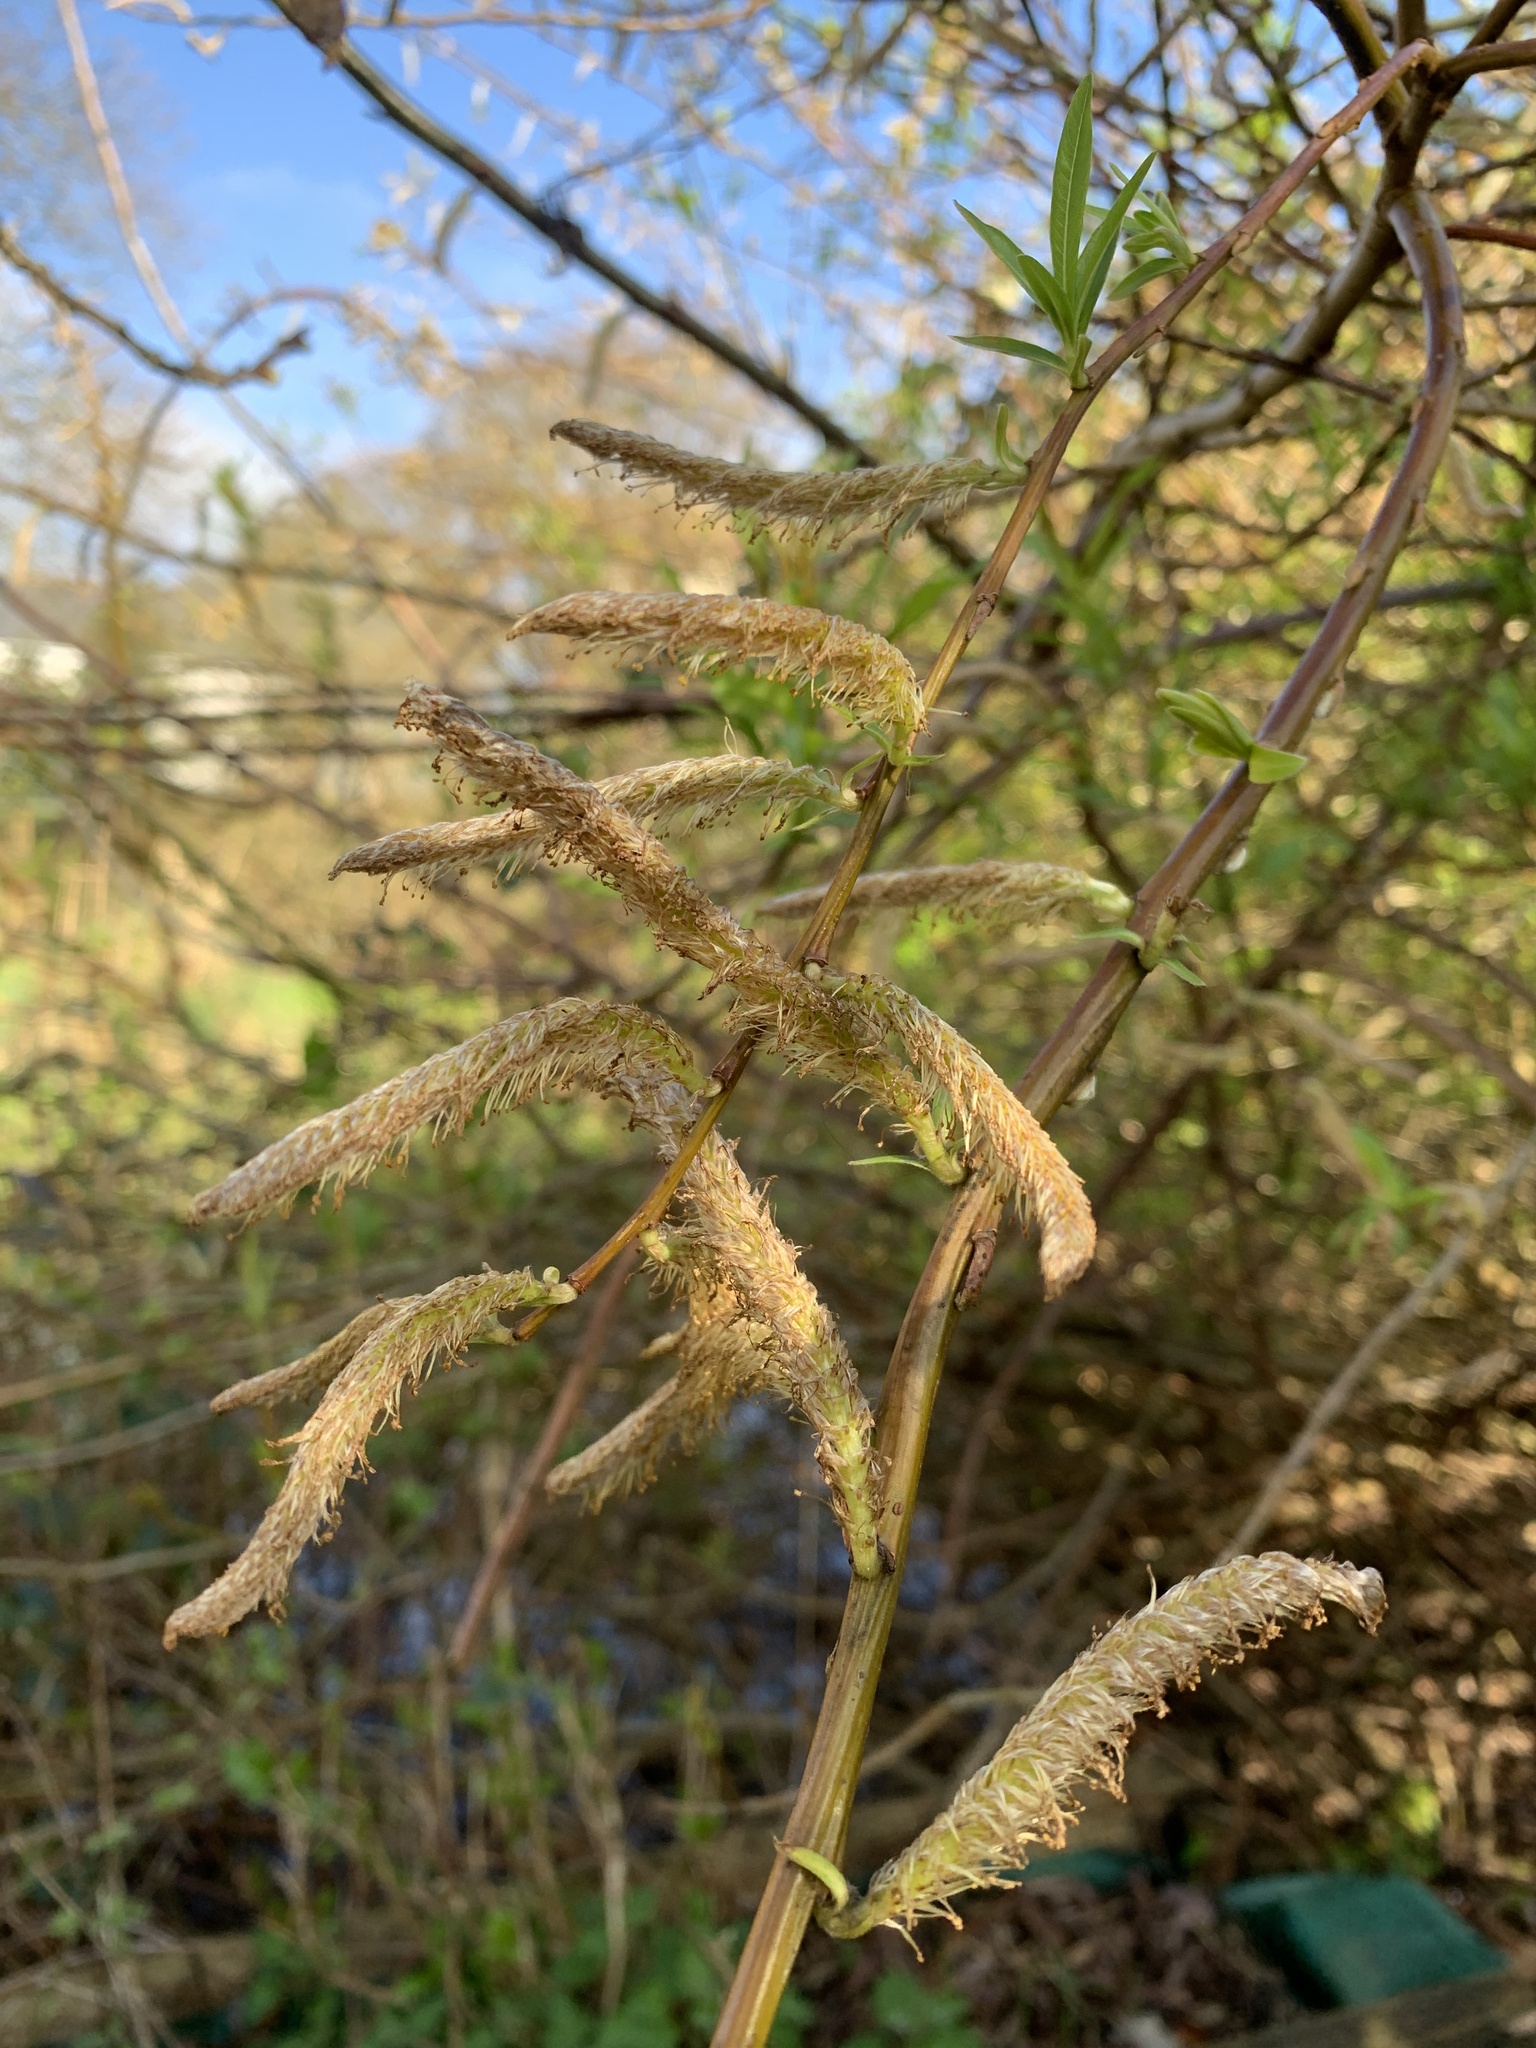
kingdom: Plantae
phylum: Tracheophyta
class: Magnoliopsida
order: Fagales
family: Betulaceae
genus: Corylus
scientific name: Corylus avellana
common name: European hazel
